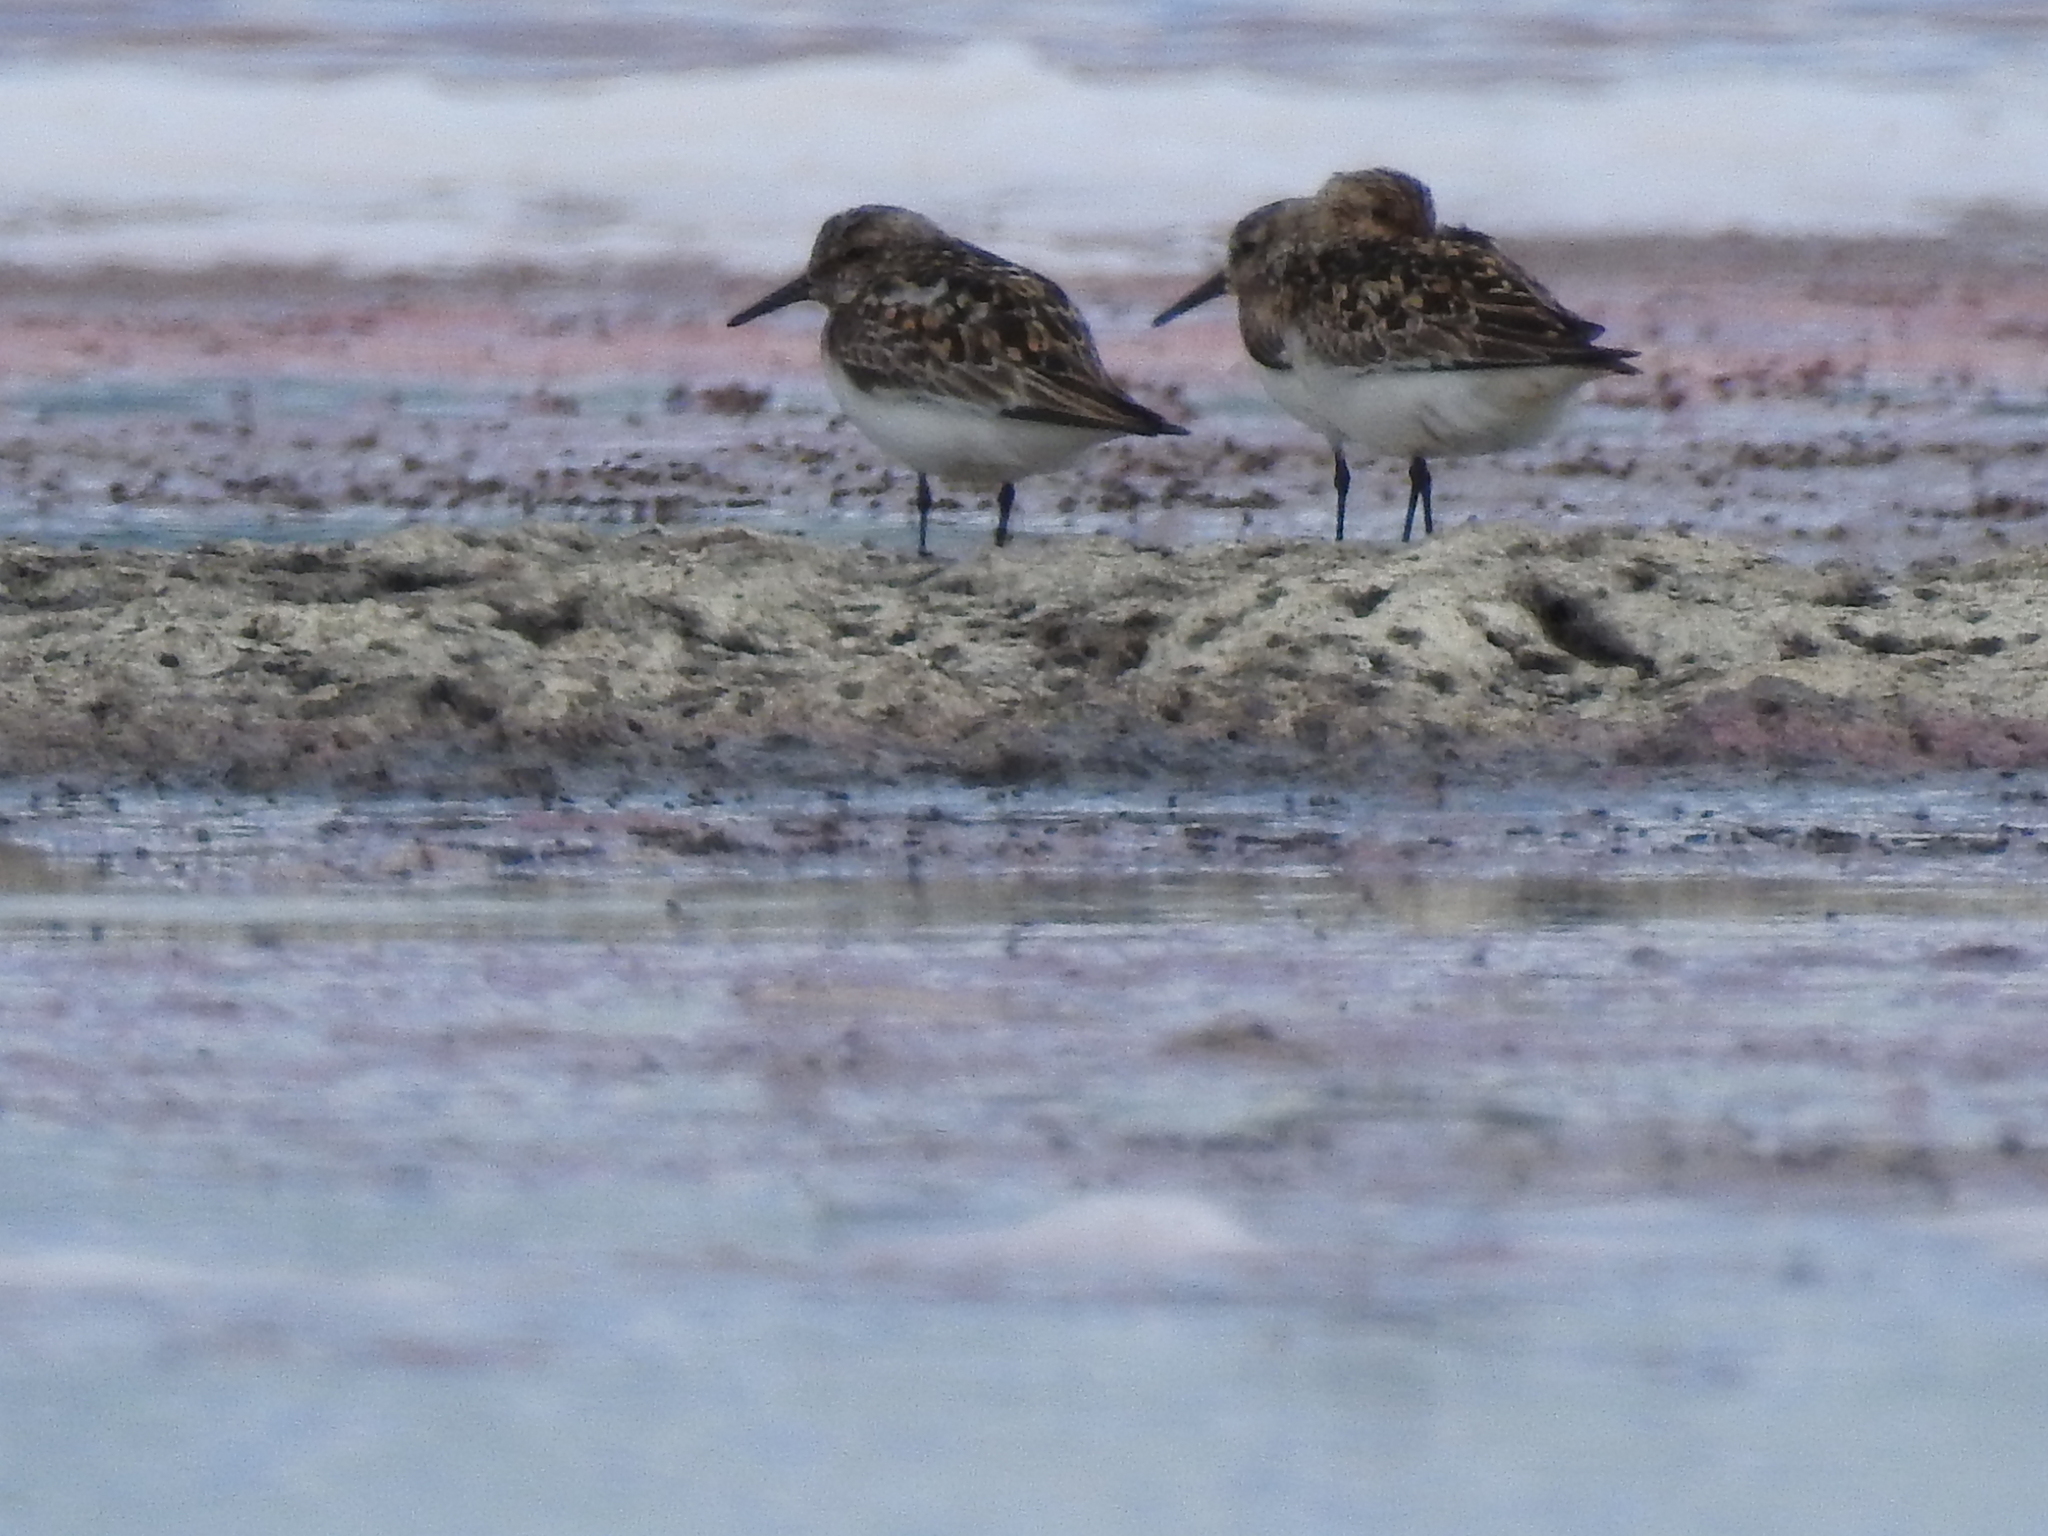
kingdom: Animalia
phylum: Chordata
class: Aves
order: Charadriiformes
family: Scolopacidae
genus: Calidris
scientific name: Calidris minuta
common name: Little stint
